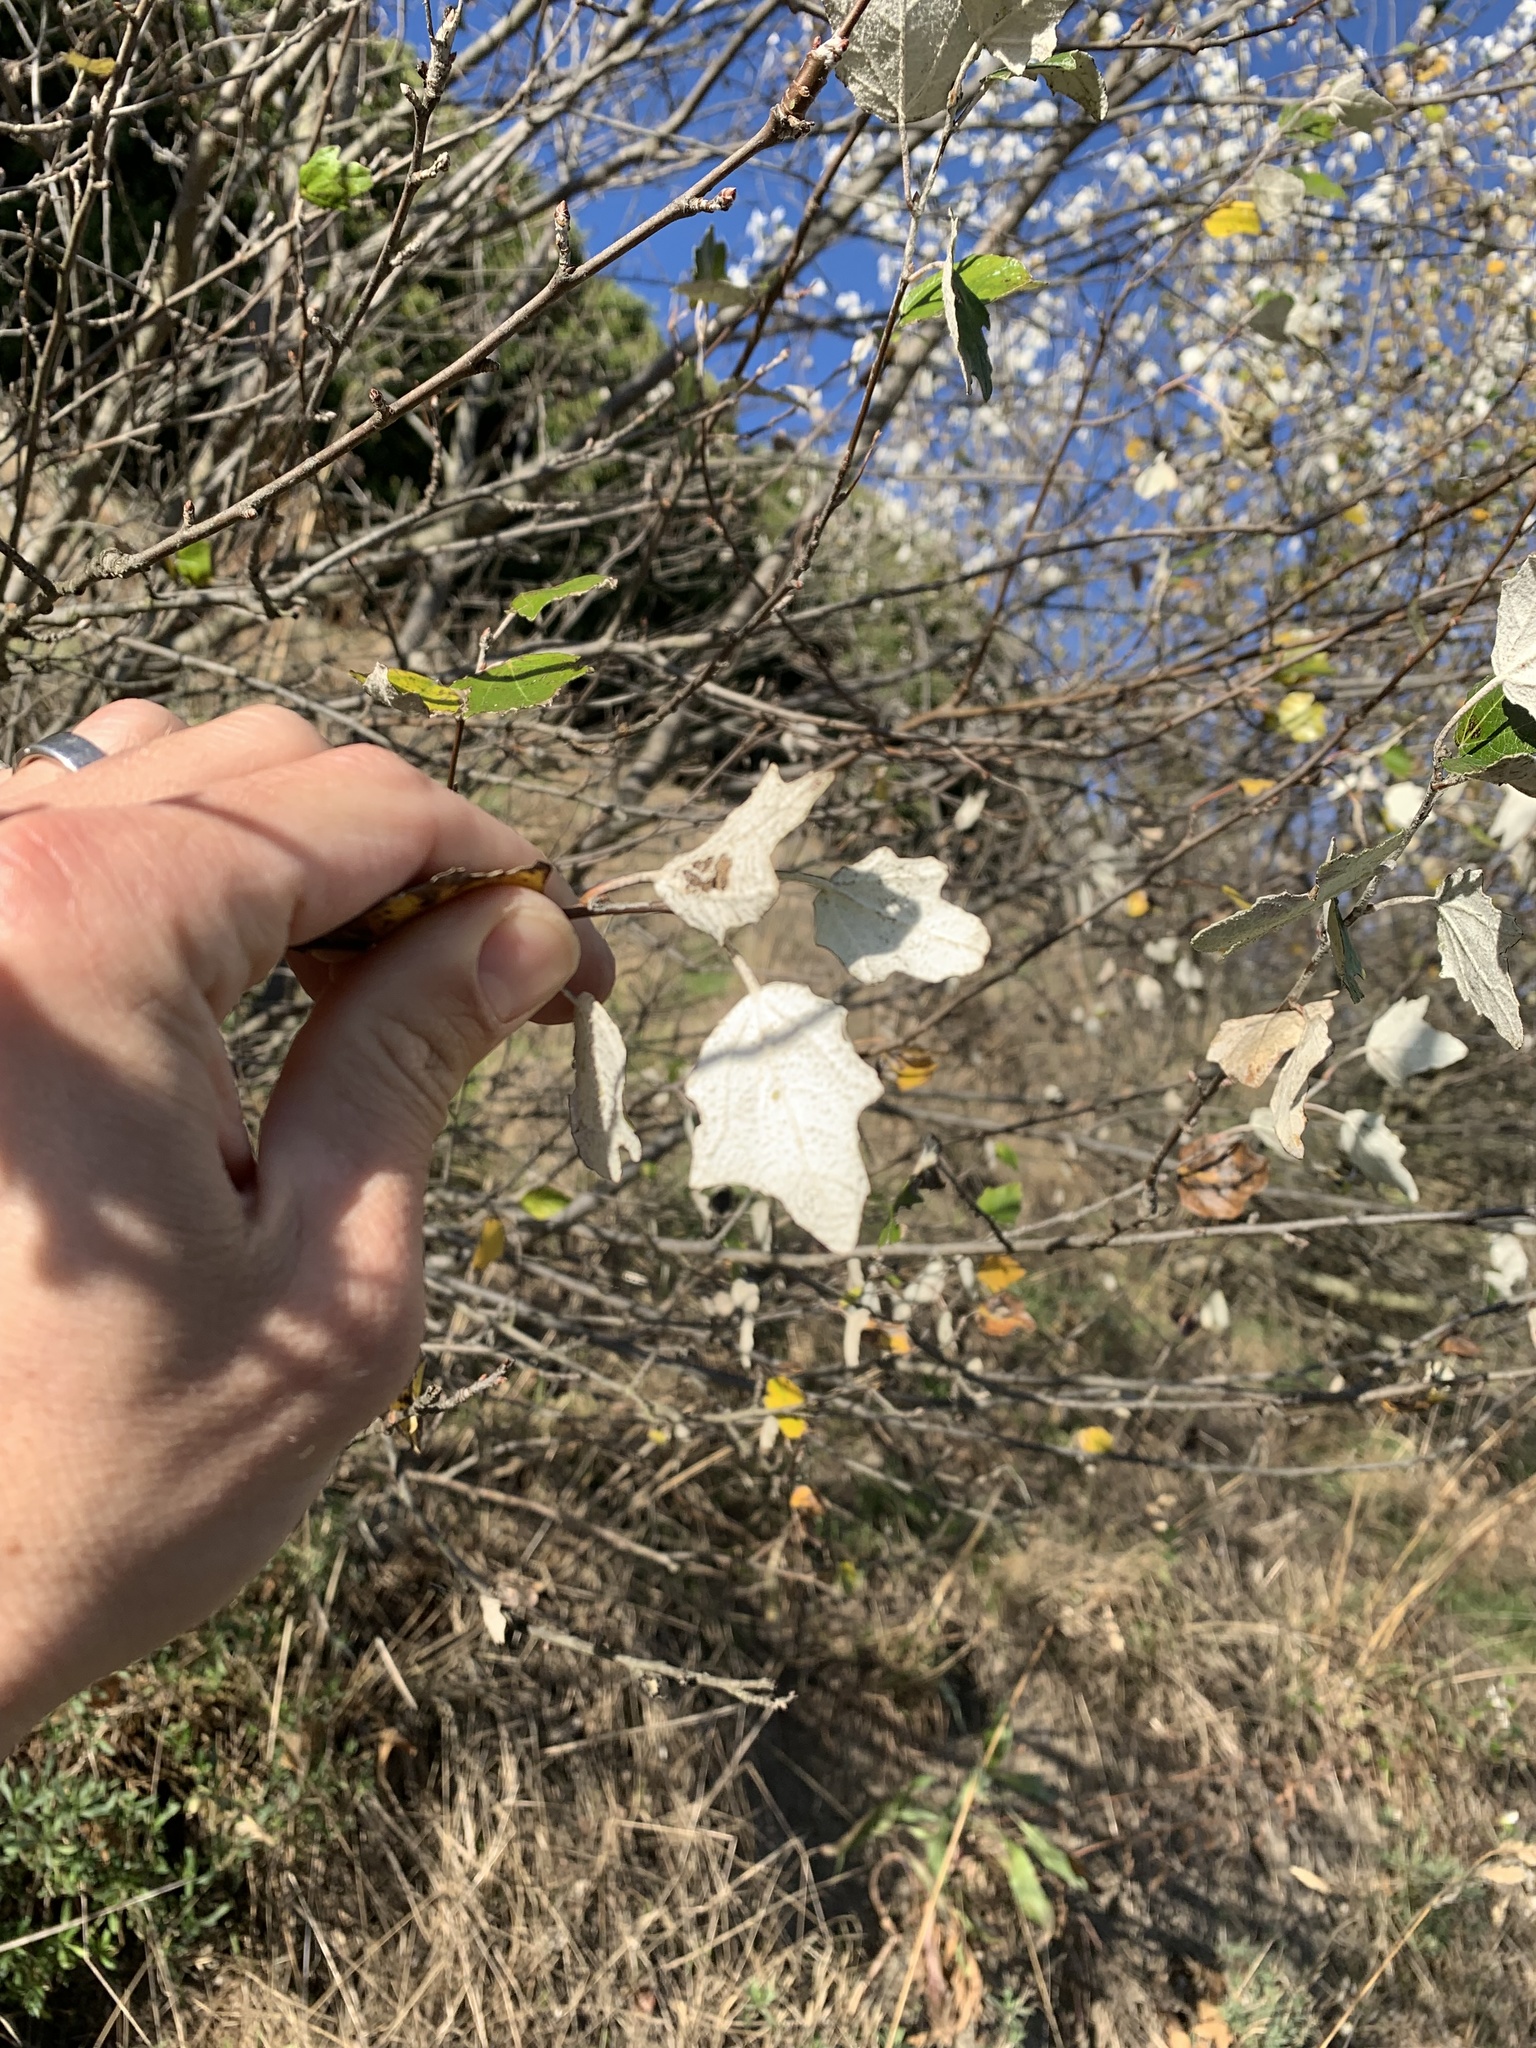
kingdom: Plantae
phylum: Tracheophyta
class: Magnoliopsida
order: Malpighiales
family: Salicaceae
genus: Populus
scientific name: Populus alba
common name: White poplar
